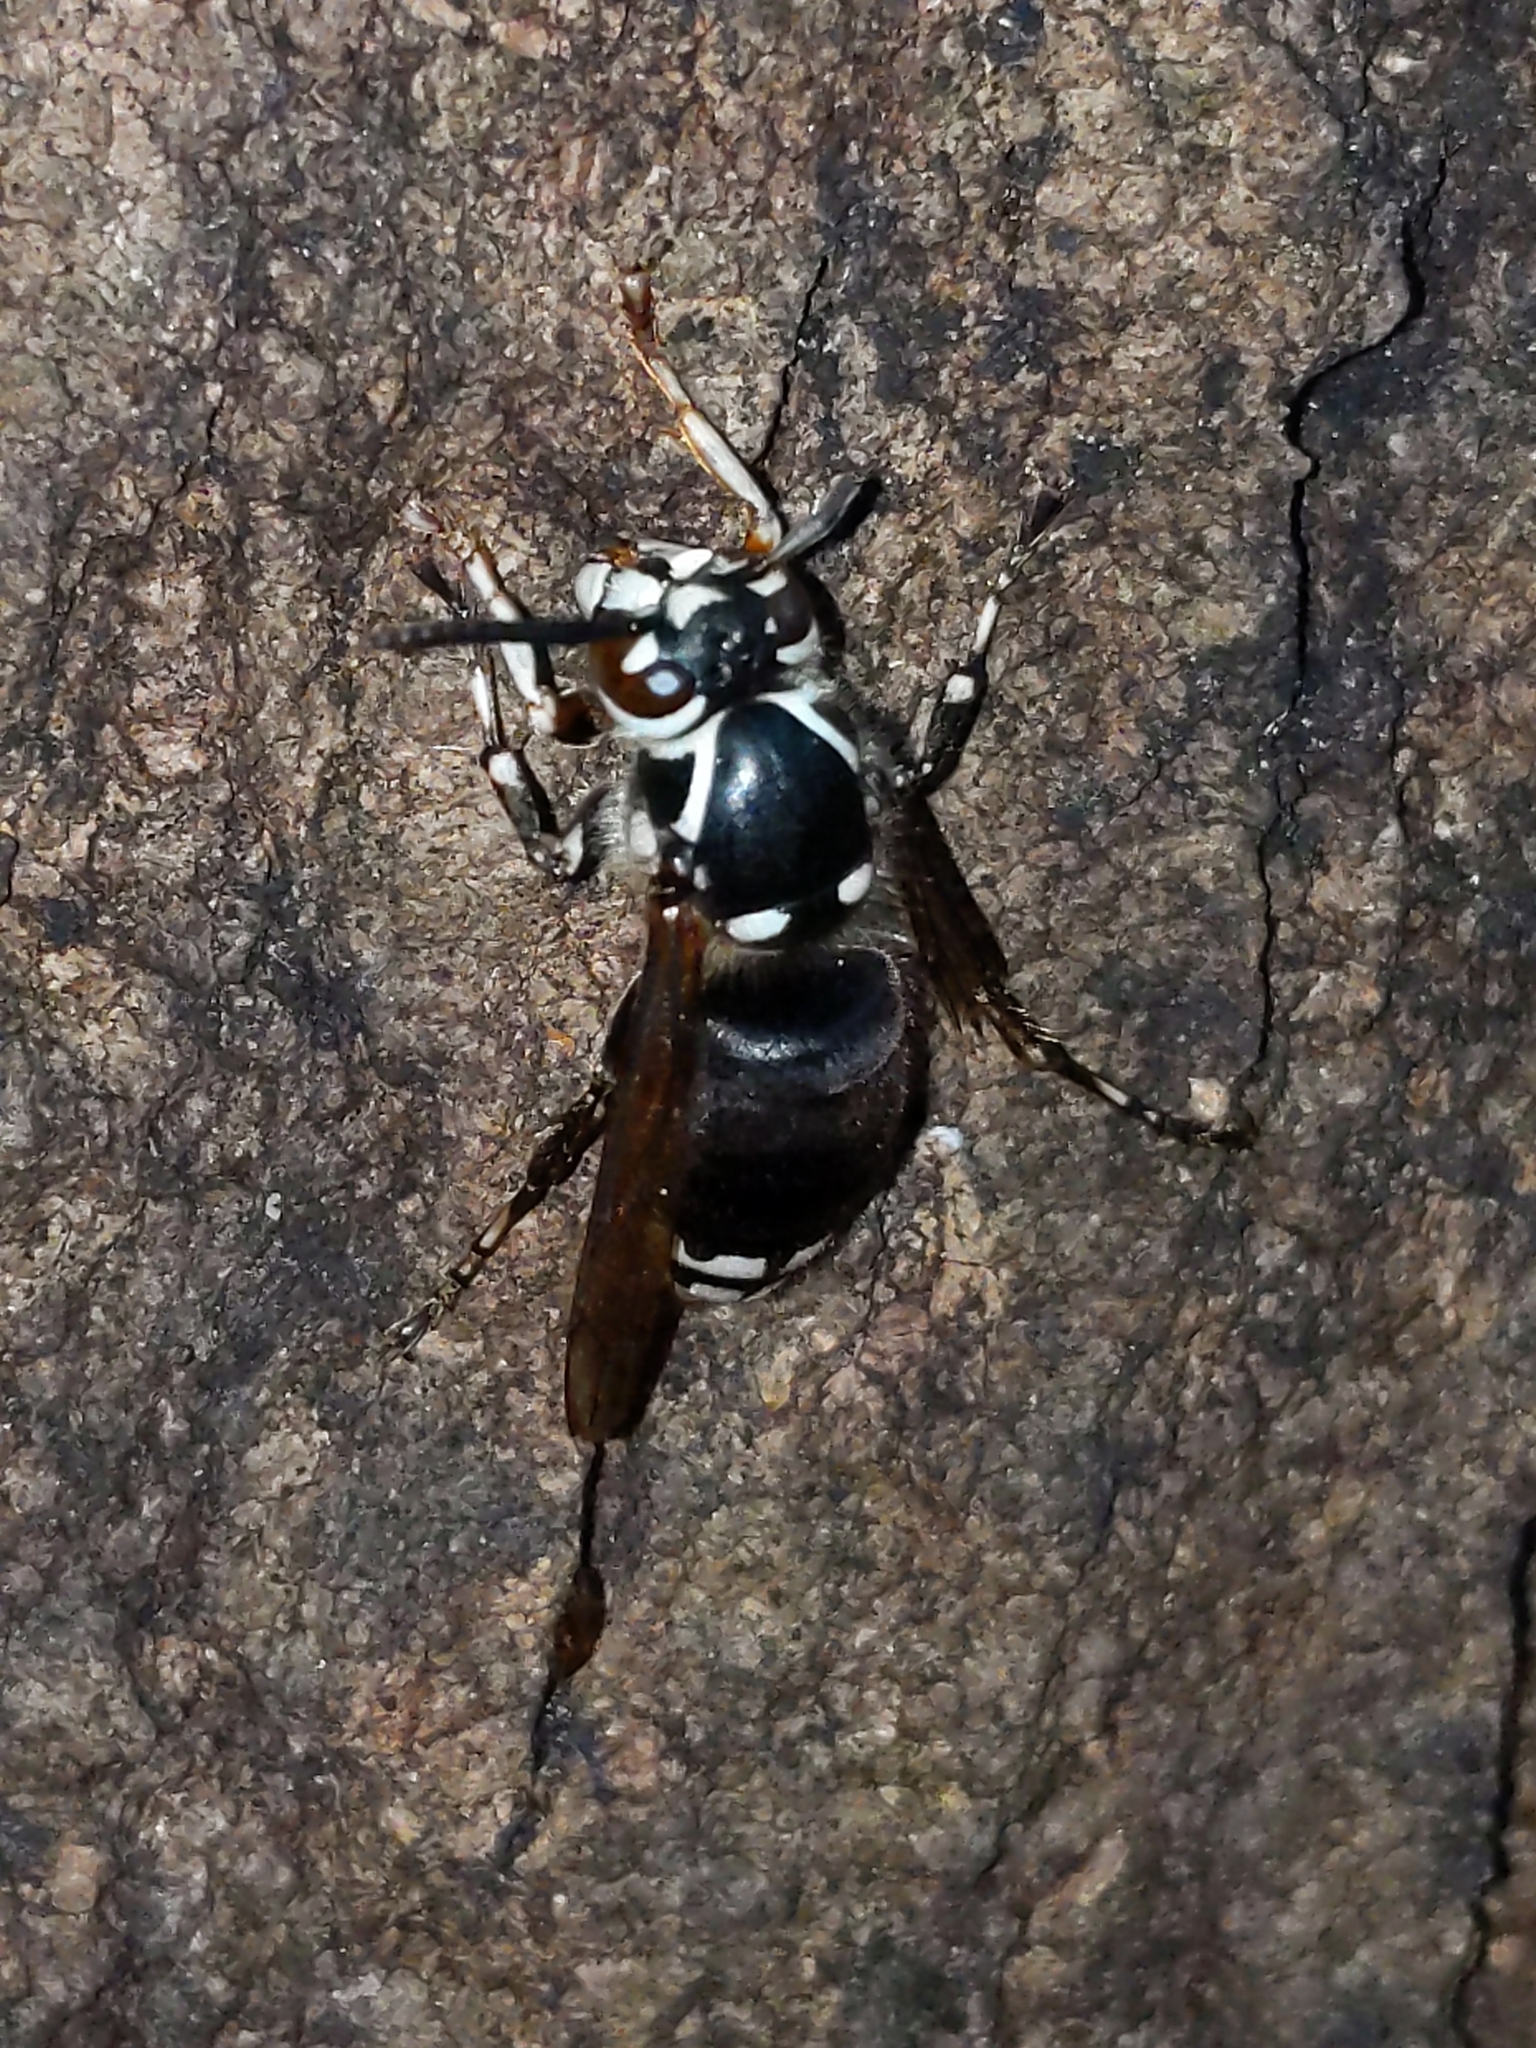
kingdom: Animalia
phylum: Arthropoda
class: Insecta
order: Hymenoptera
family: Vespidae
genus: Dolichovespula
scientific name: Dolichovespula maculata
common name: Bald-faced hornet
